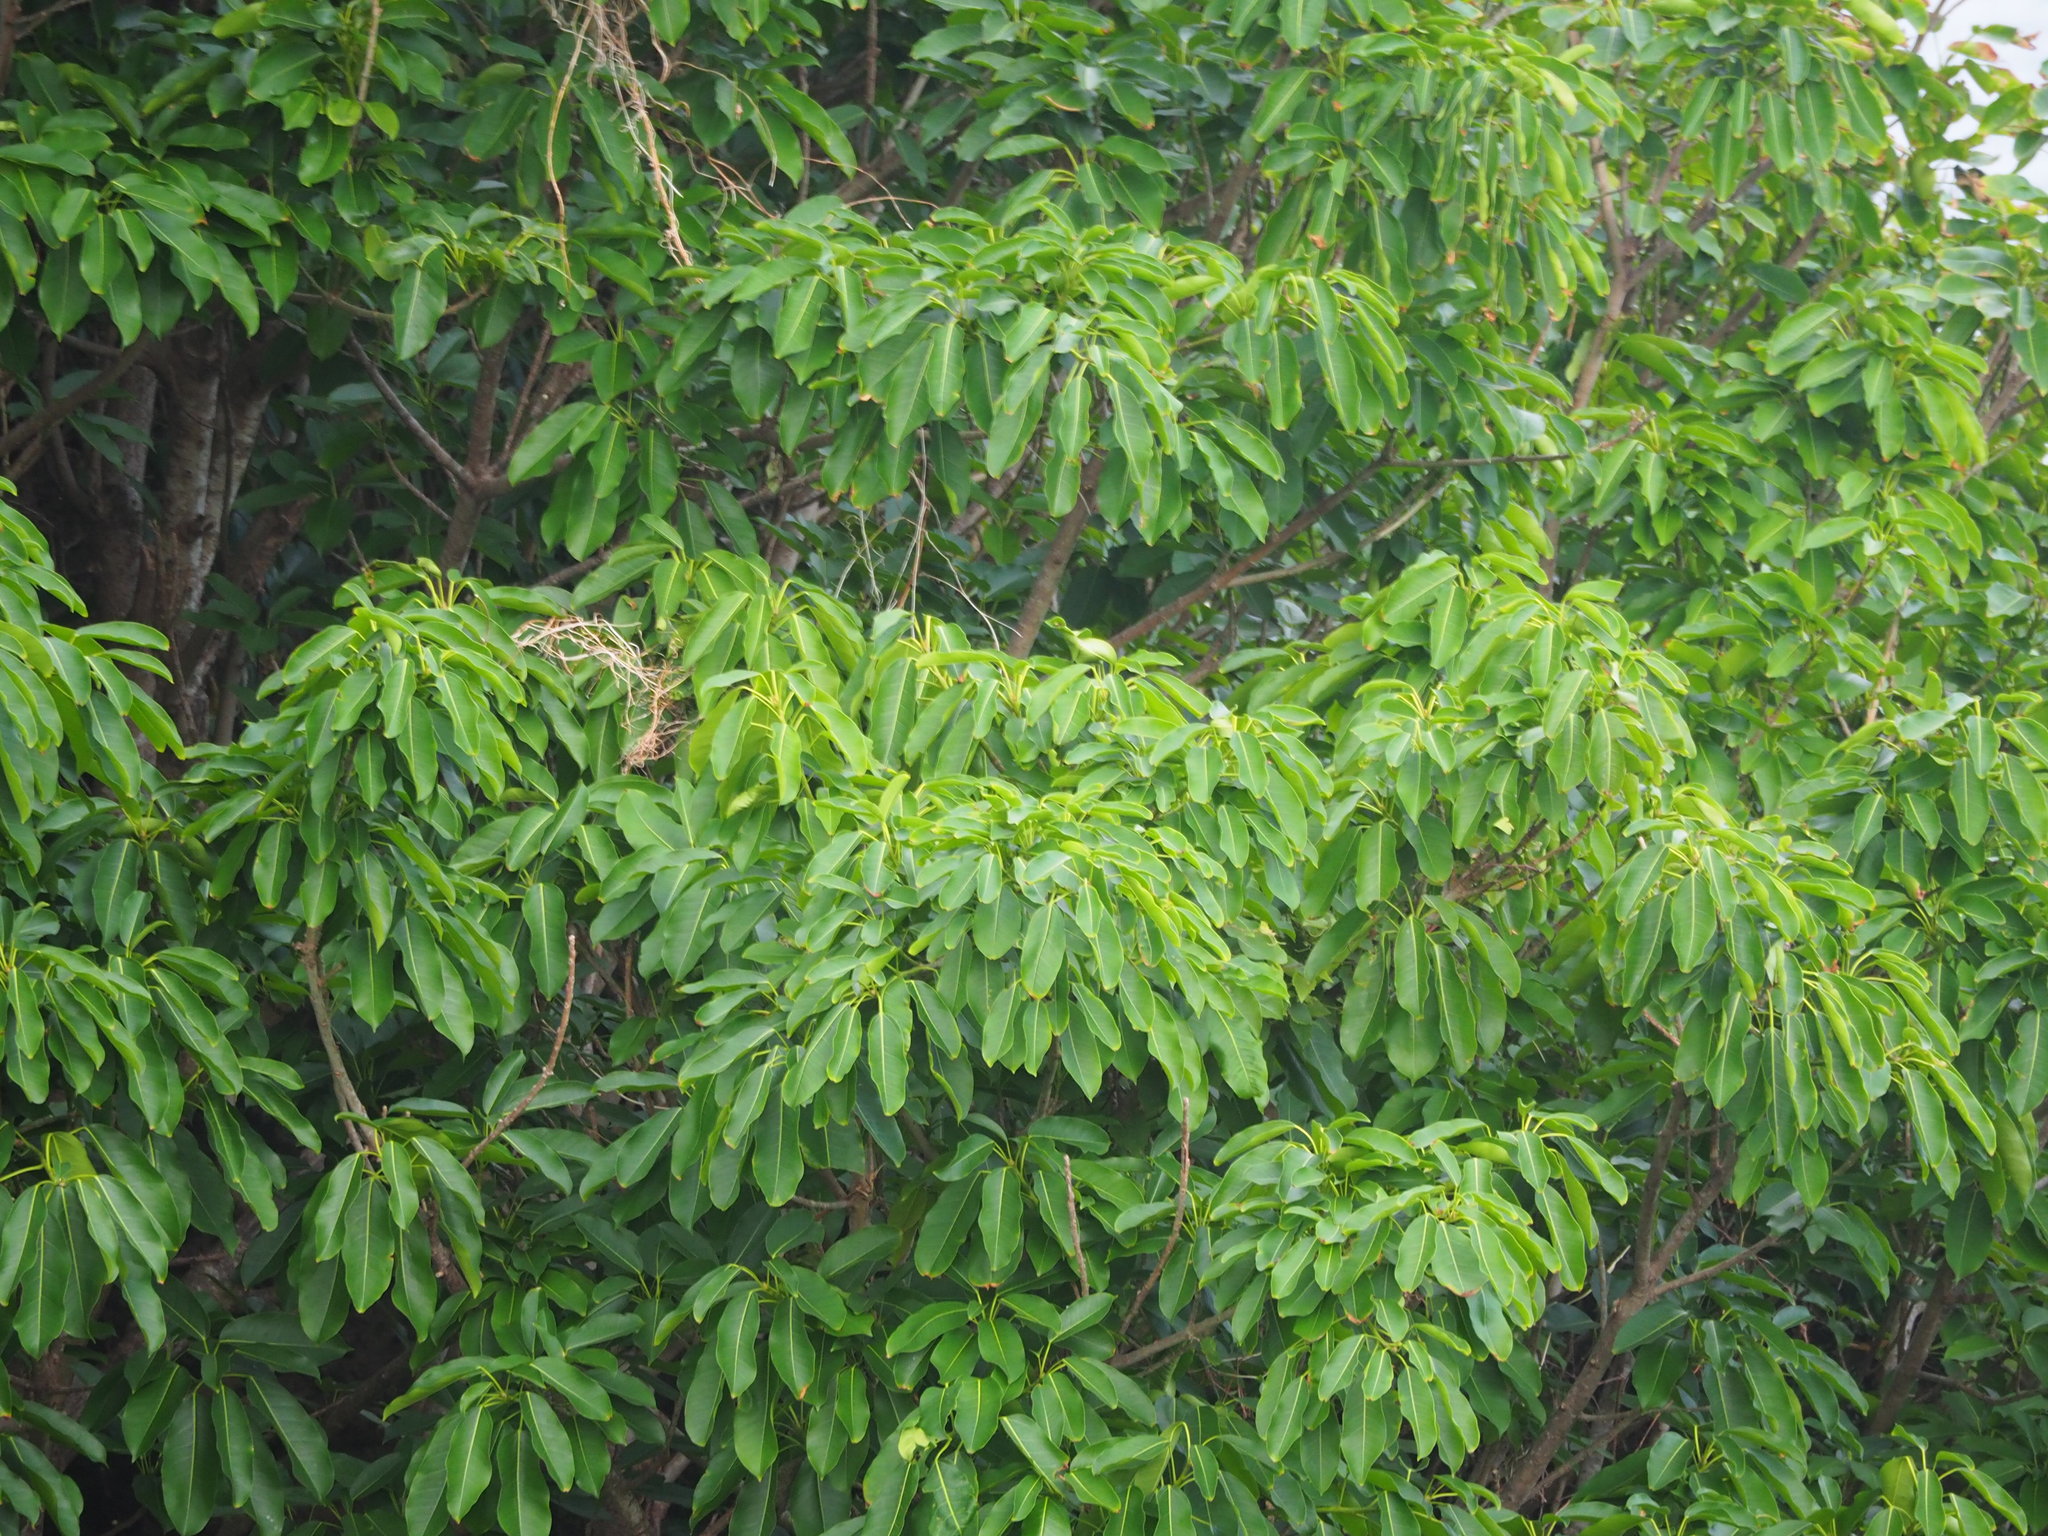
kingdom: Plantae
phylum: Tracheophyta
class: Magnoliopsida
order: Rosales
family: Moraceae
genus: Ficus
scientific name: Ficus subpisocarpa
